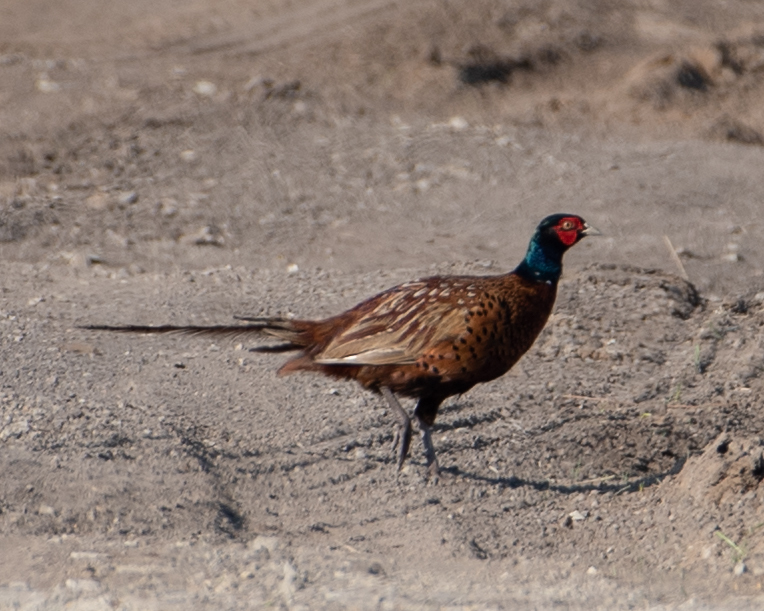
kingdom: Animalia
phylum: Chordata
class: Aves
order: Galliformes
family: Phasianidae
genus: Phasianus
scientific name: Phasianus colchicus
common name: Common pheasant
